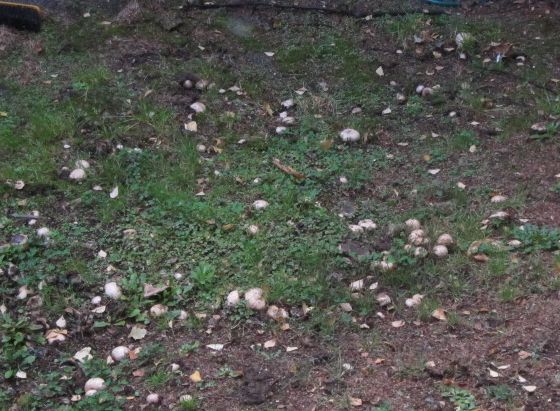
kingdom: Fungi
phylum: Basidiomycota
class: Agaricomycetes
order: Boletales
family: Sclerodermataceae
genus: Scleroderma
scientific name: Scleroderma bovista
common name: Potato earthball
